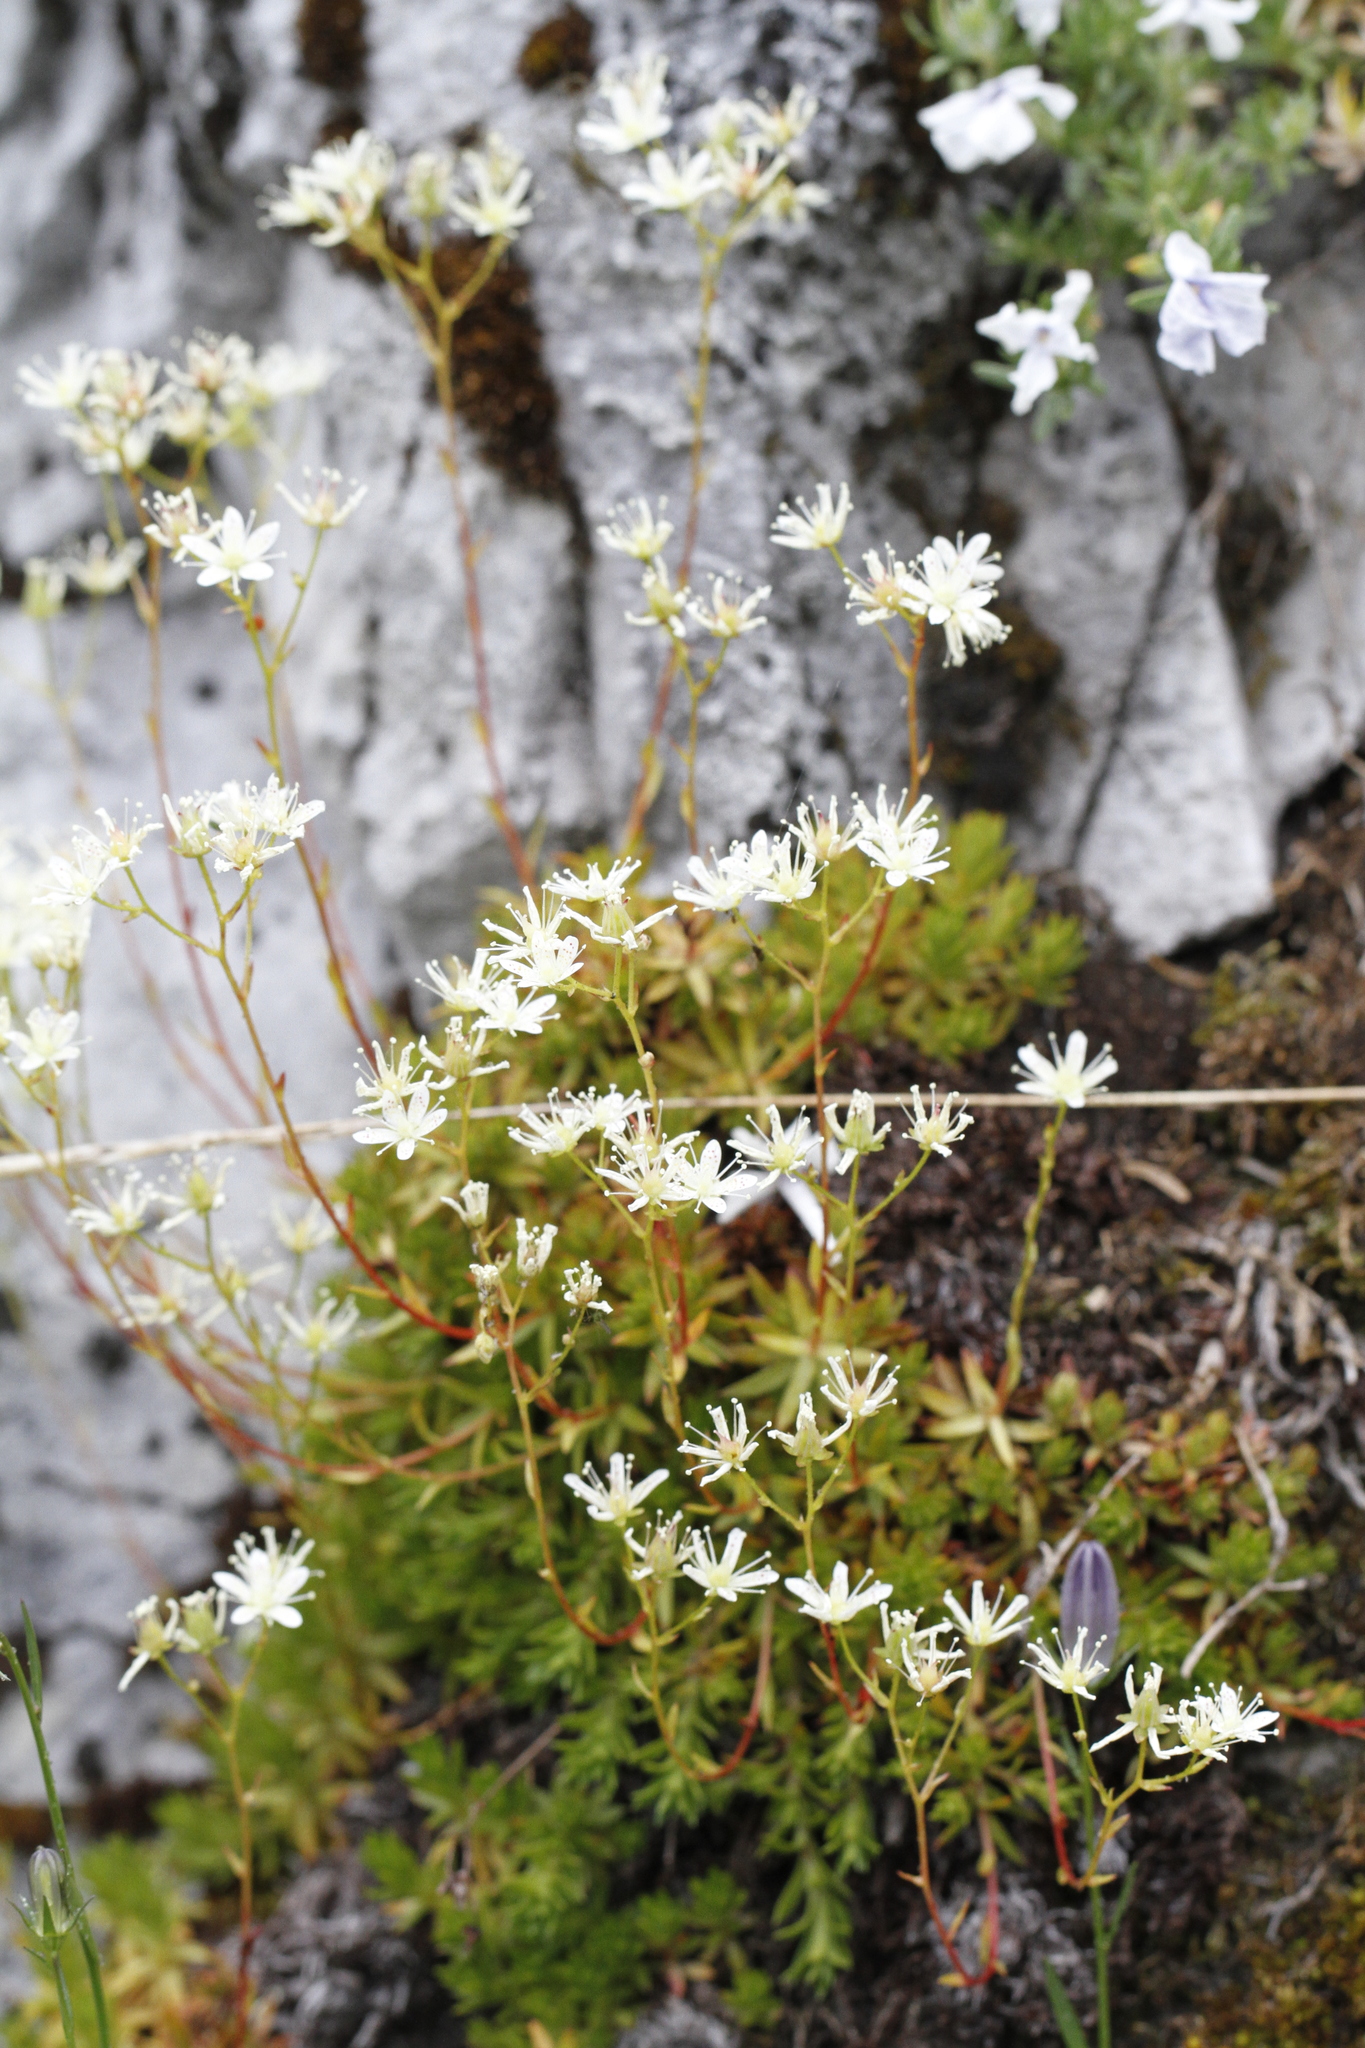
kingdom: Plantae
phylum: Tracheophyta
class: Magnoliopsida
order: Saxifragales
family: Saxifragaceae
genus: Saxifraga
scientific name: Saxifraga bronchialis
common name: Matted saxifrage
